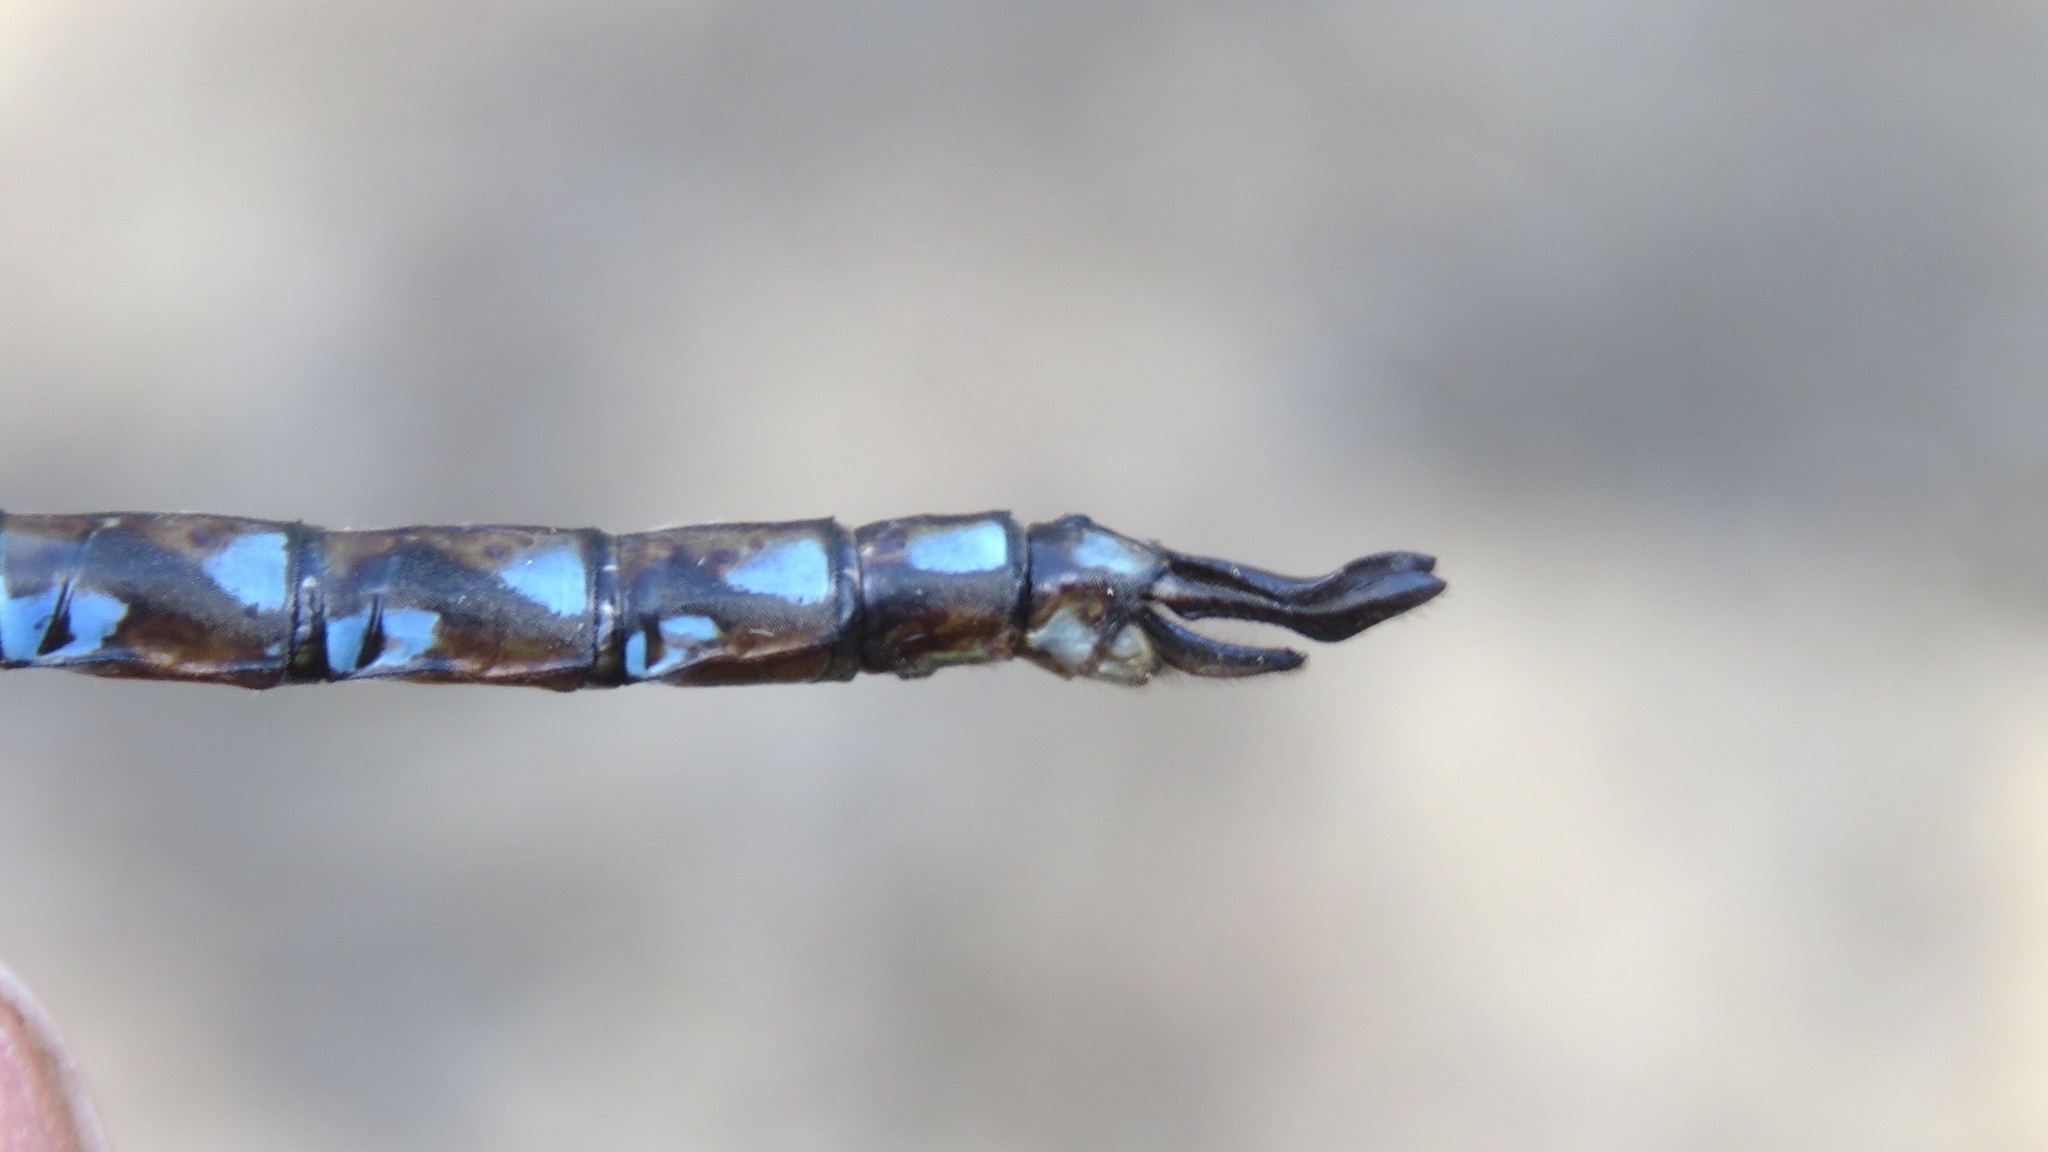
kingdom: Animalia
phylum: Arthropoda
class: Insecta
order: Odonata
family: Aeshnidae
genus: Basiaeschna
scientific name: Basiaeschna janata
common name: Springtime darner
